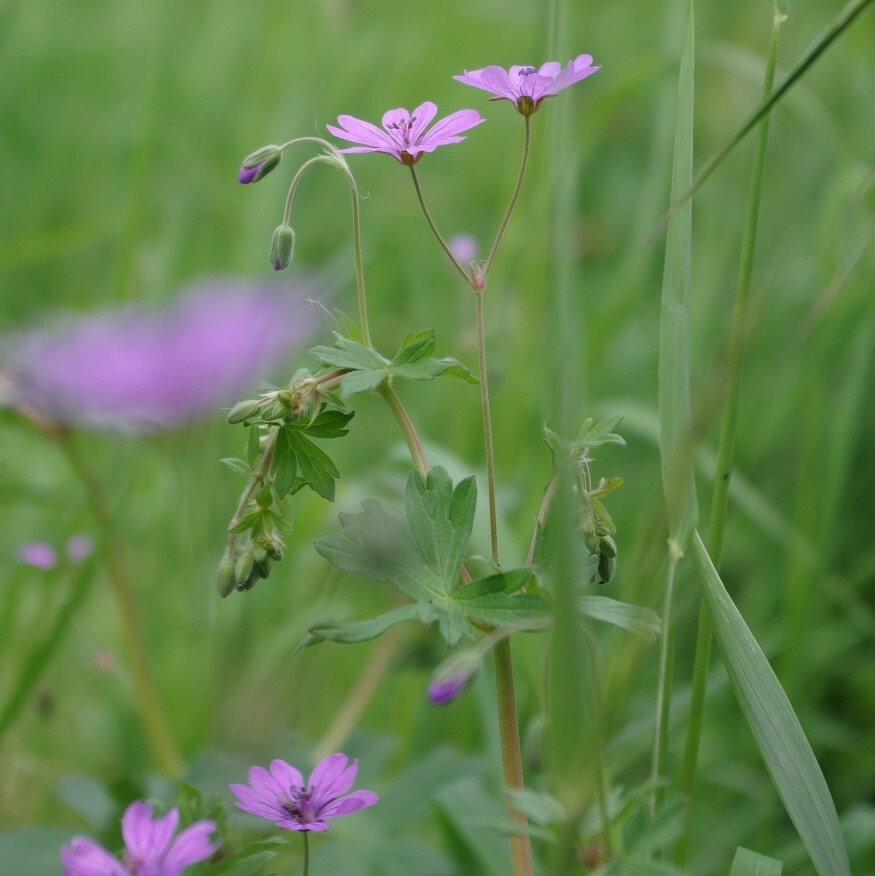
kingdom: Plantae
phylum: Tracheophyta
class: Magnoliopsida
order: Geraniales
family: Geraniaceae
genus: Geranium
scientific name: Geranium pyrenaicum
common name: Hedgerow crane's-bill
